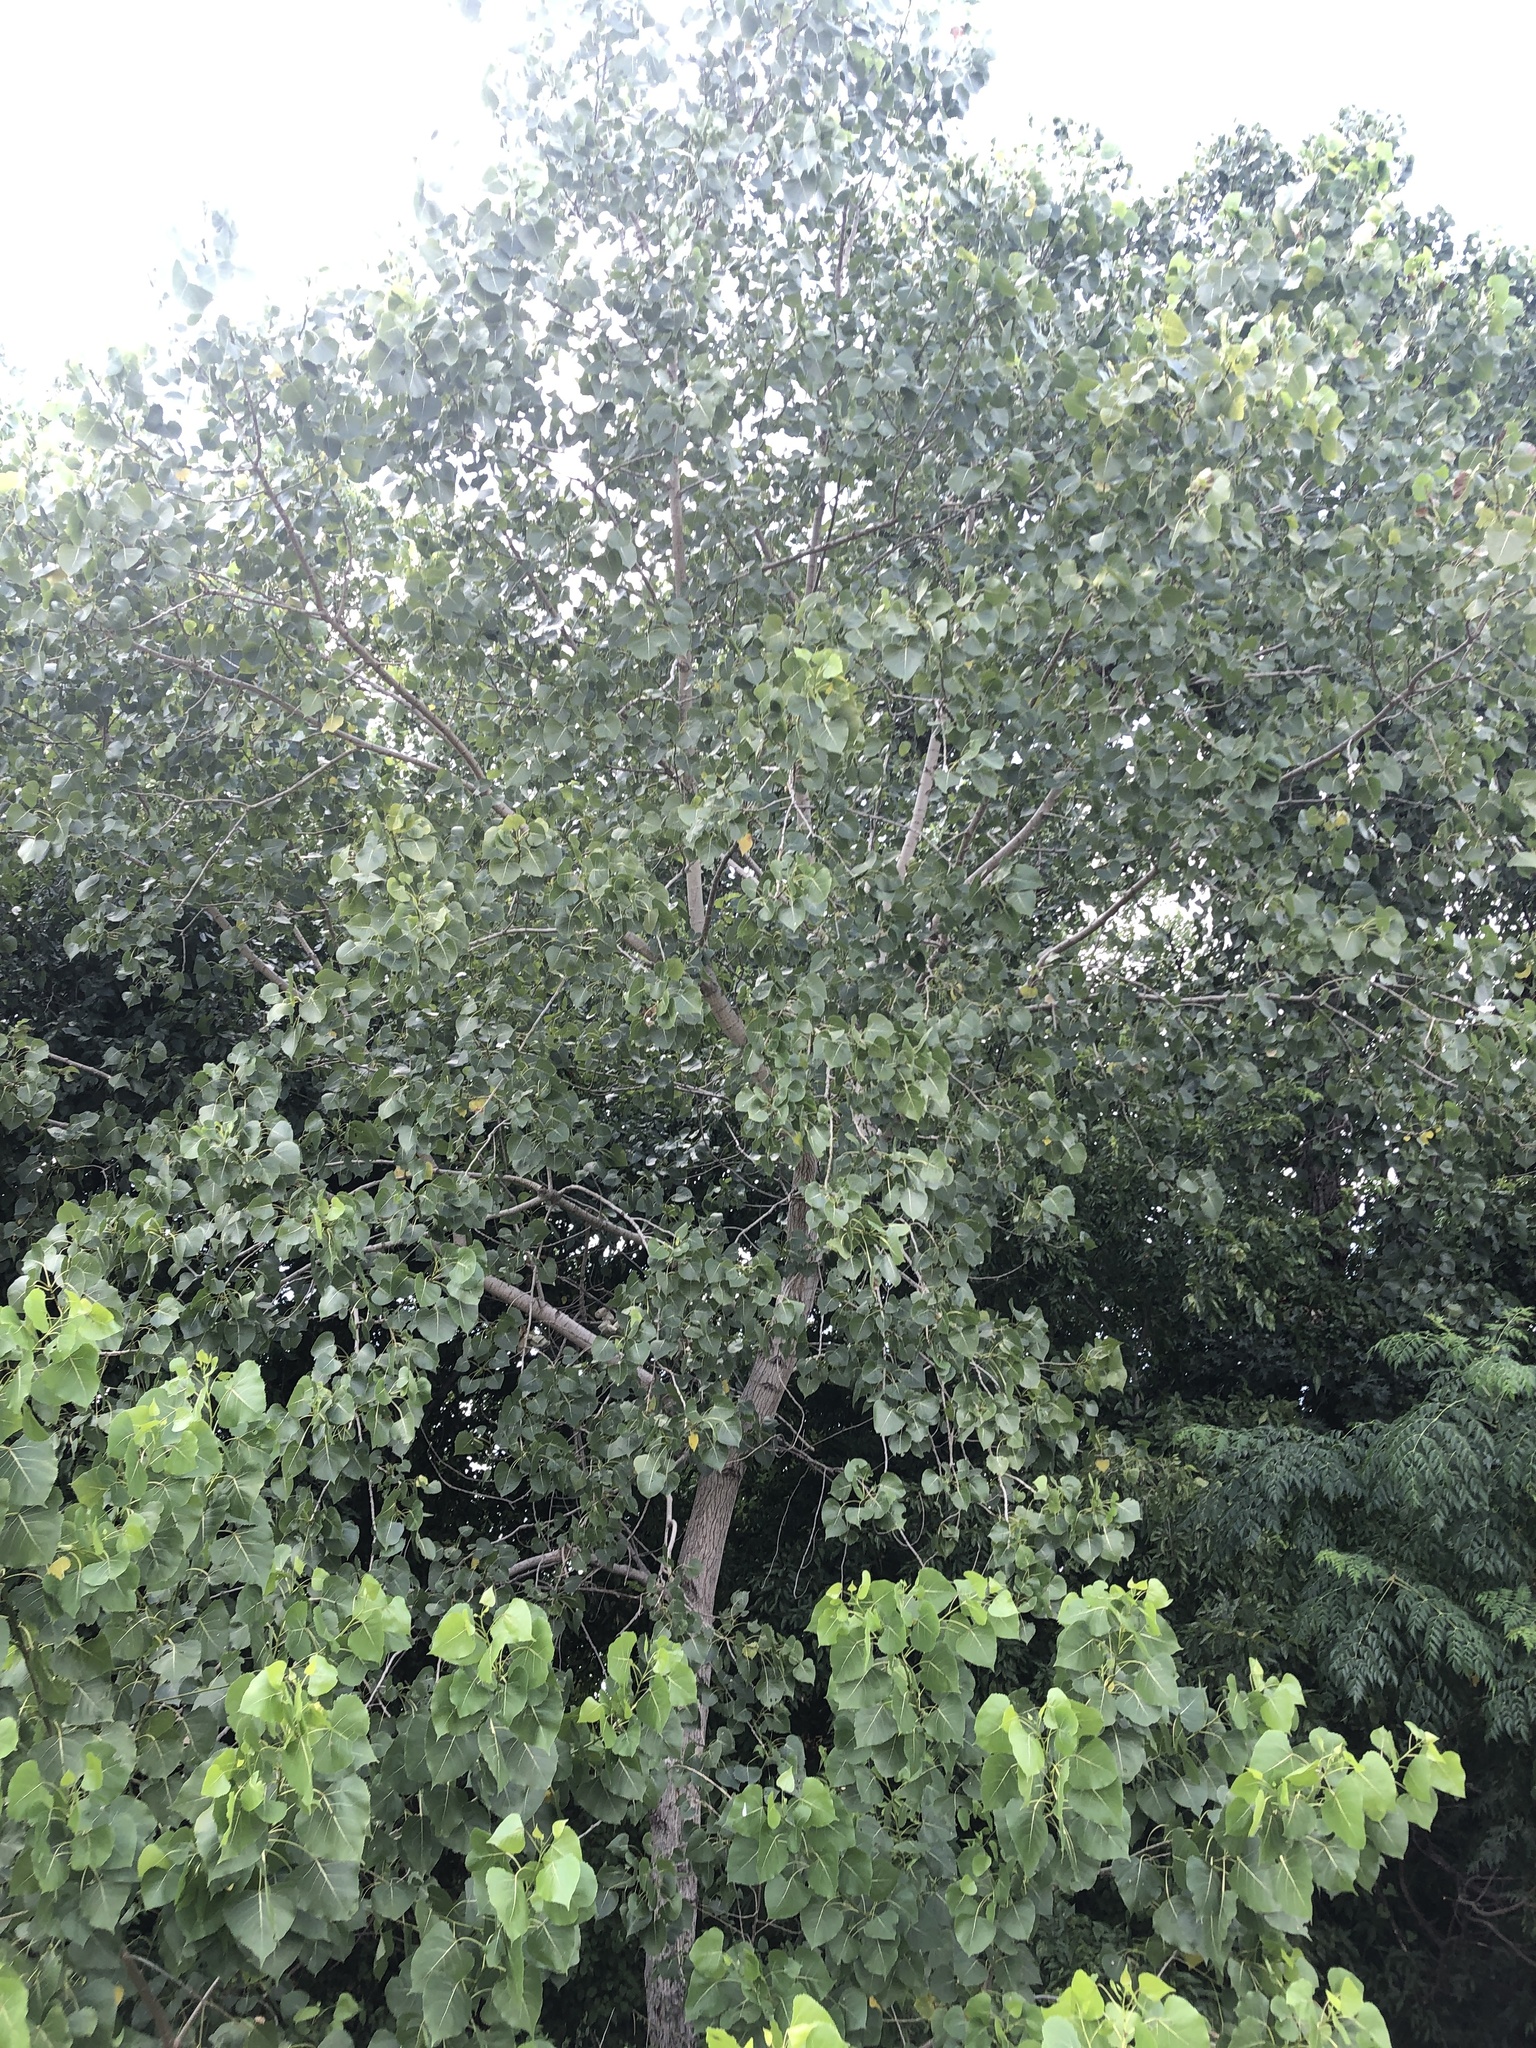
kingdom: Plantae
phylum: Tracheophyta
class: Magnoliopsida
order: Malpighiales
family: Salicaceae
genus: Populus
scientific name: Populus deltoides
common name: Eastern cottonwood
